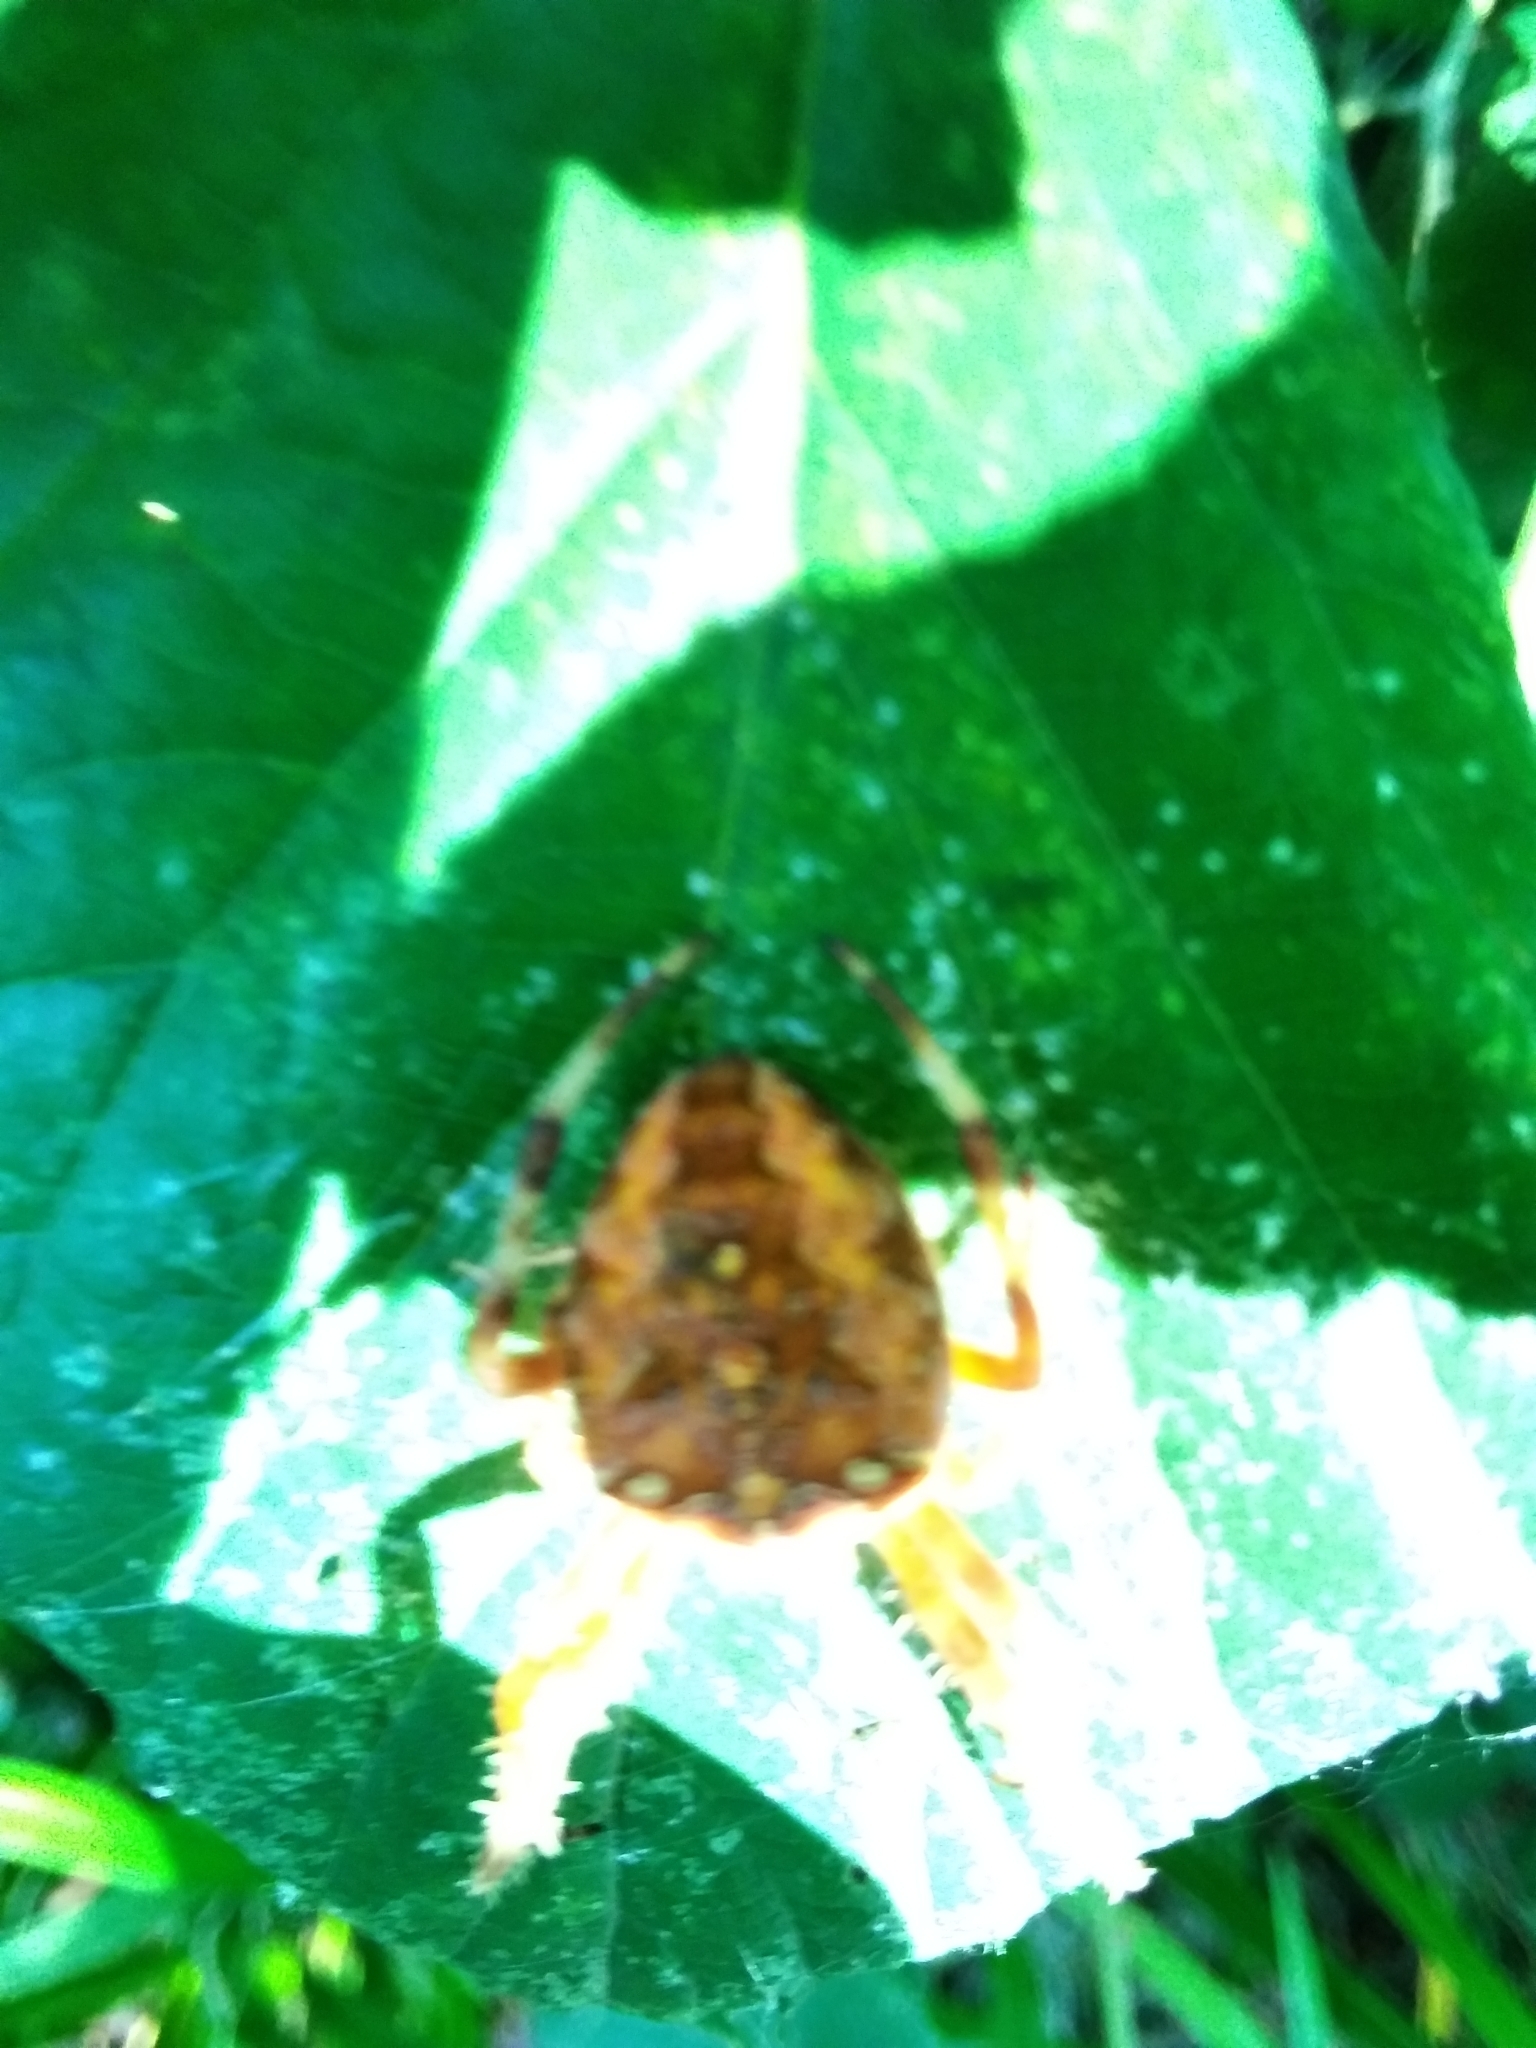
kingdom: Animalia
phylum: Arthropoda
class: Arachnida
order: Araneae
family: Araneidae
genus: Araneus
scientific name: Araneus diadematus
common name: Cross orbweaver
